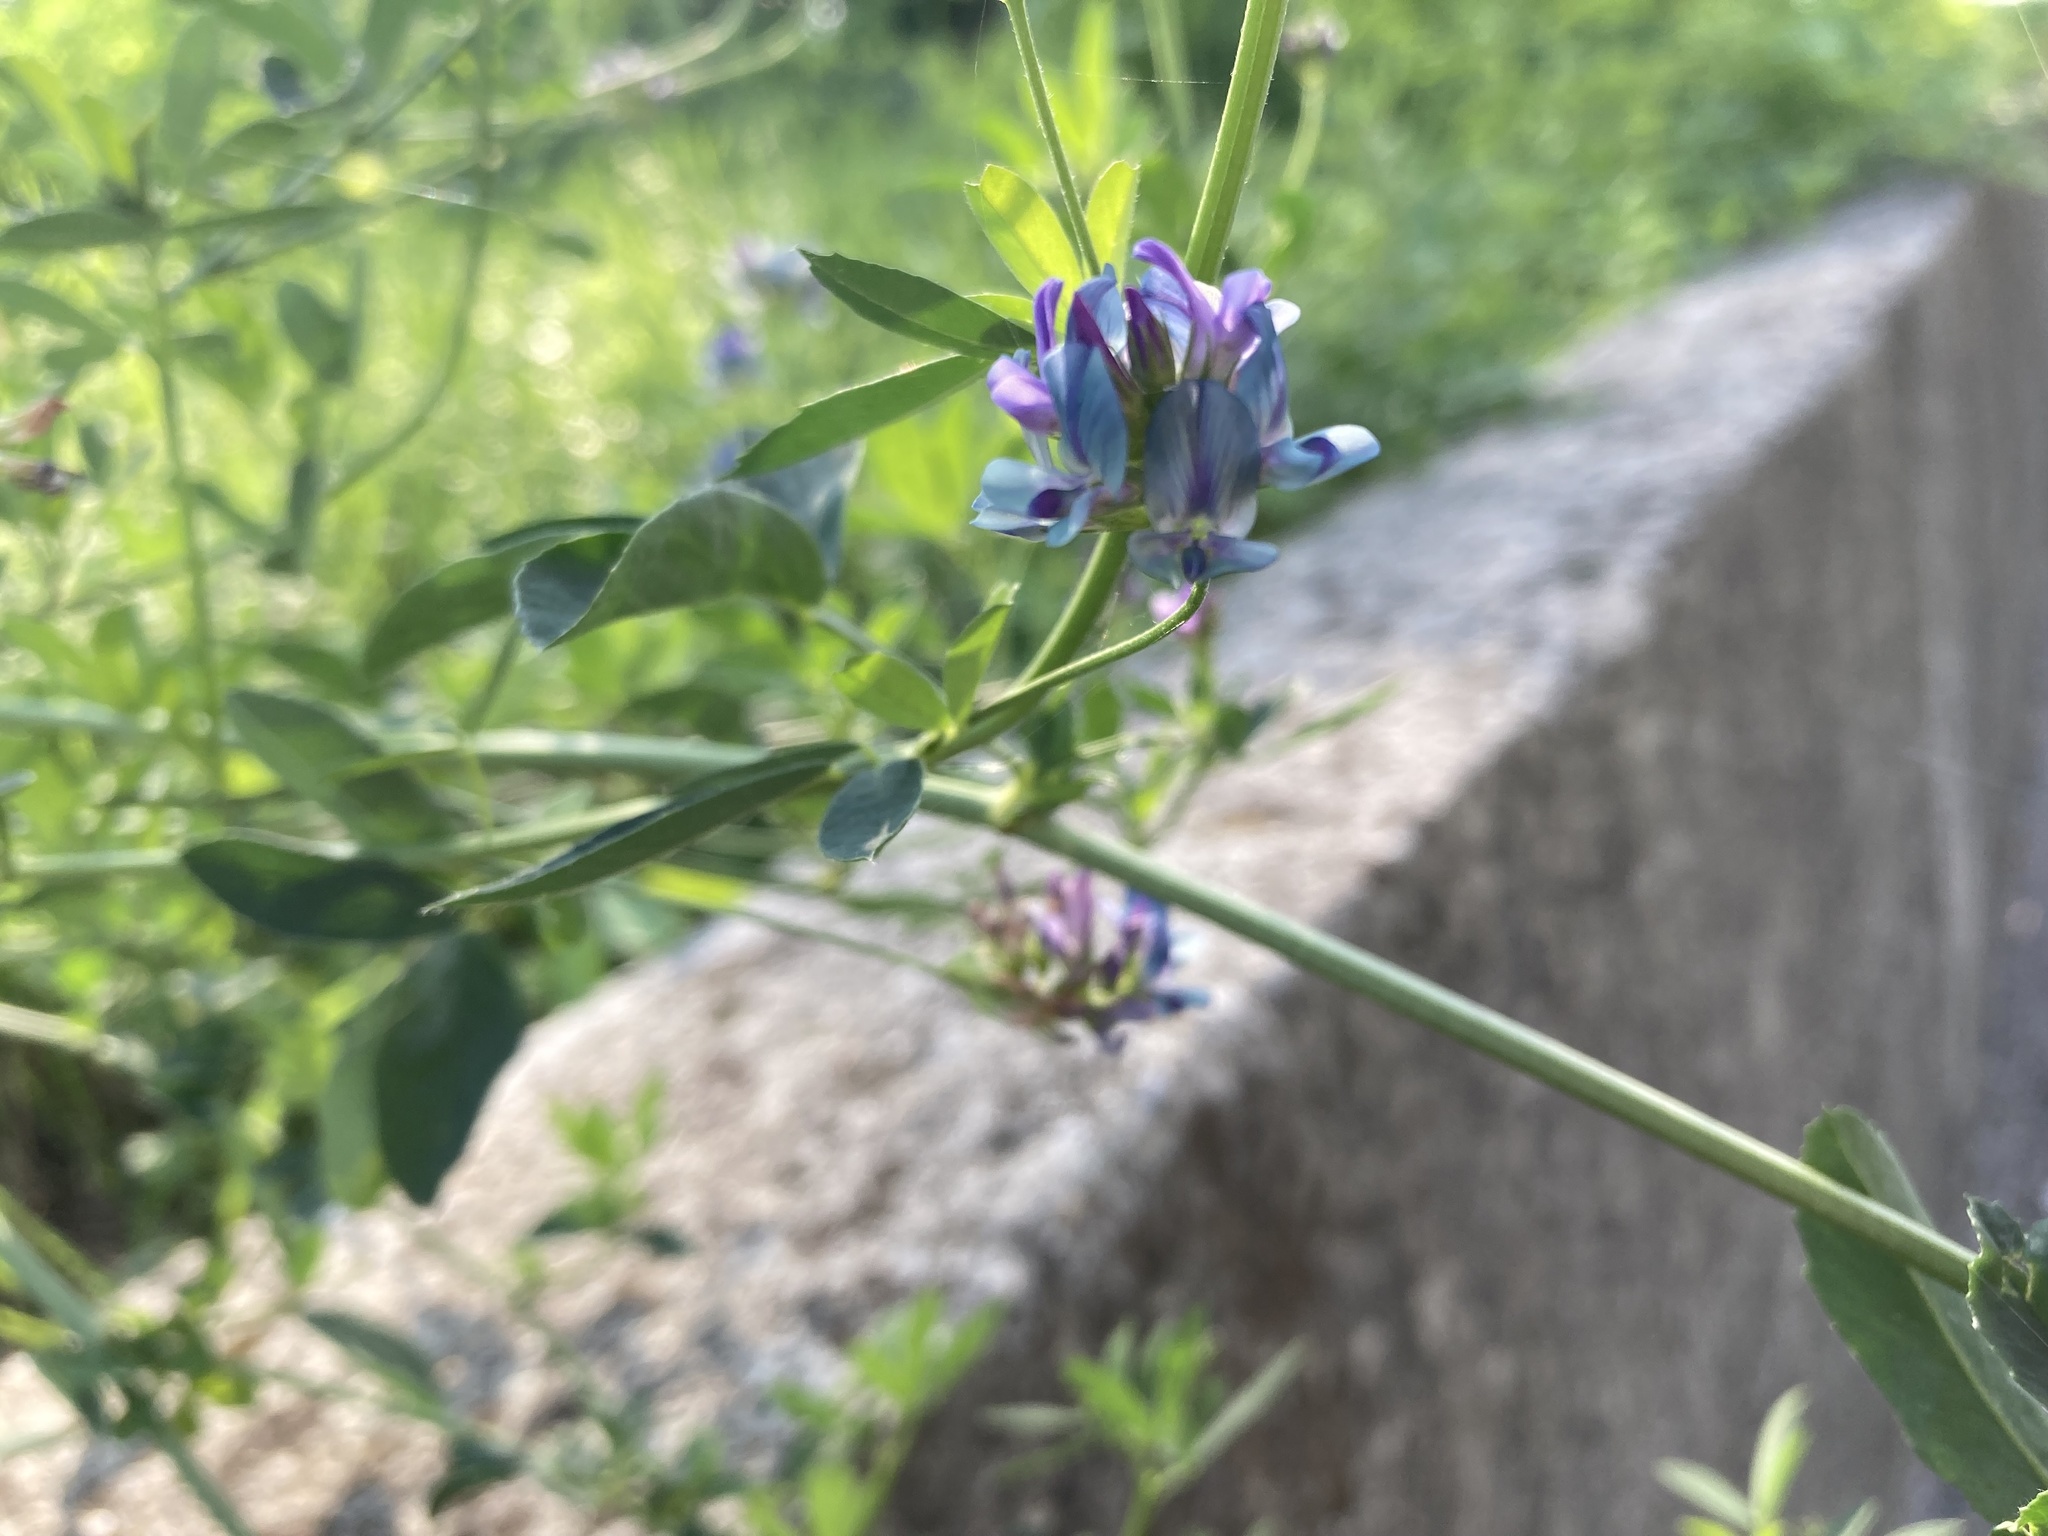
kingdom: Plantae
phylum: Tracheophyta
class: Magnoliopsida
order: Fabales
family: Fabaceae
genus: Medicago
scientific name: Medicago sativa
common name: Alfalfa
